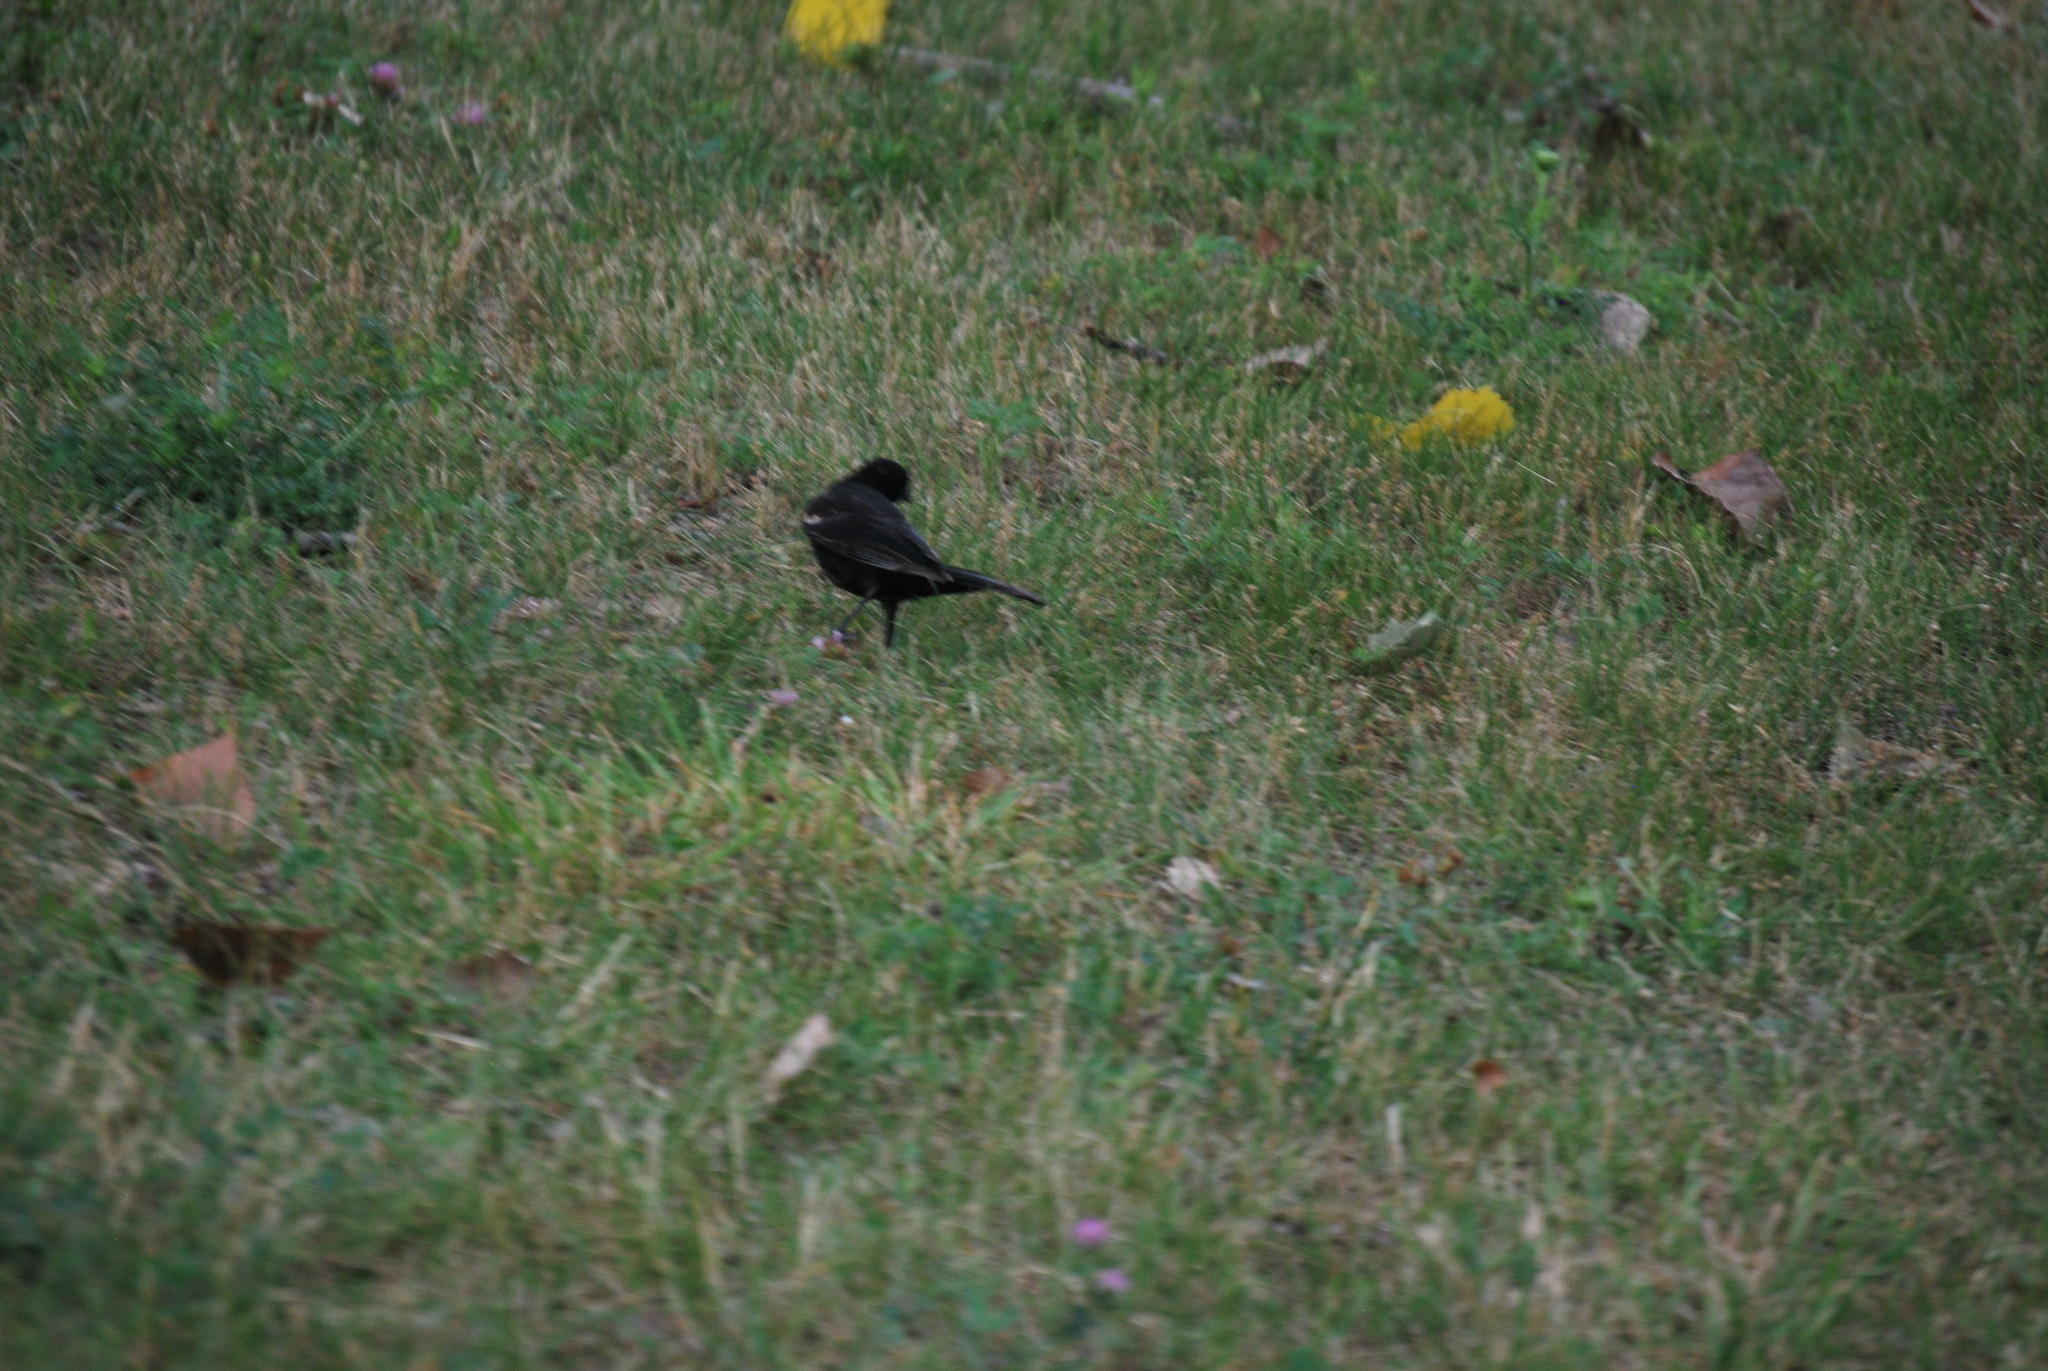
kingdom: Animalia
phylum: Chordata
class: Aves
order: Passeriformes
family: Icteridae
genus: Agelaius
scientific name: Agelaius phoeniceus
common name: Red-winged blackbird
